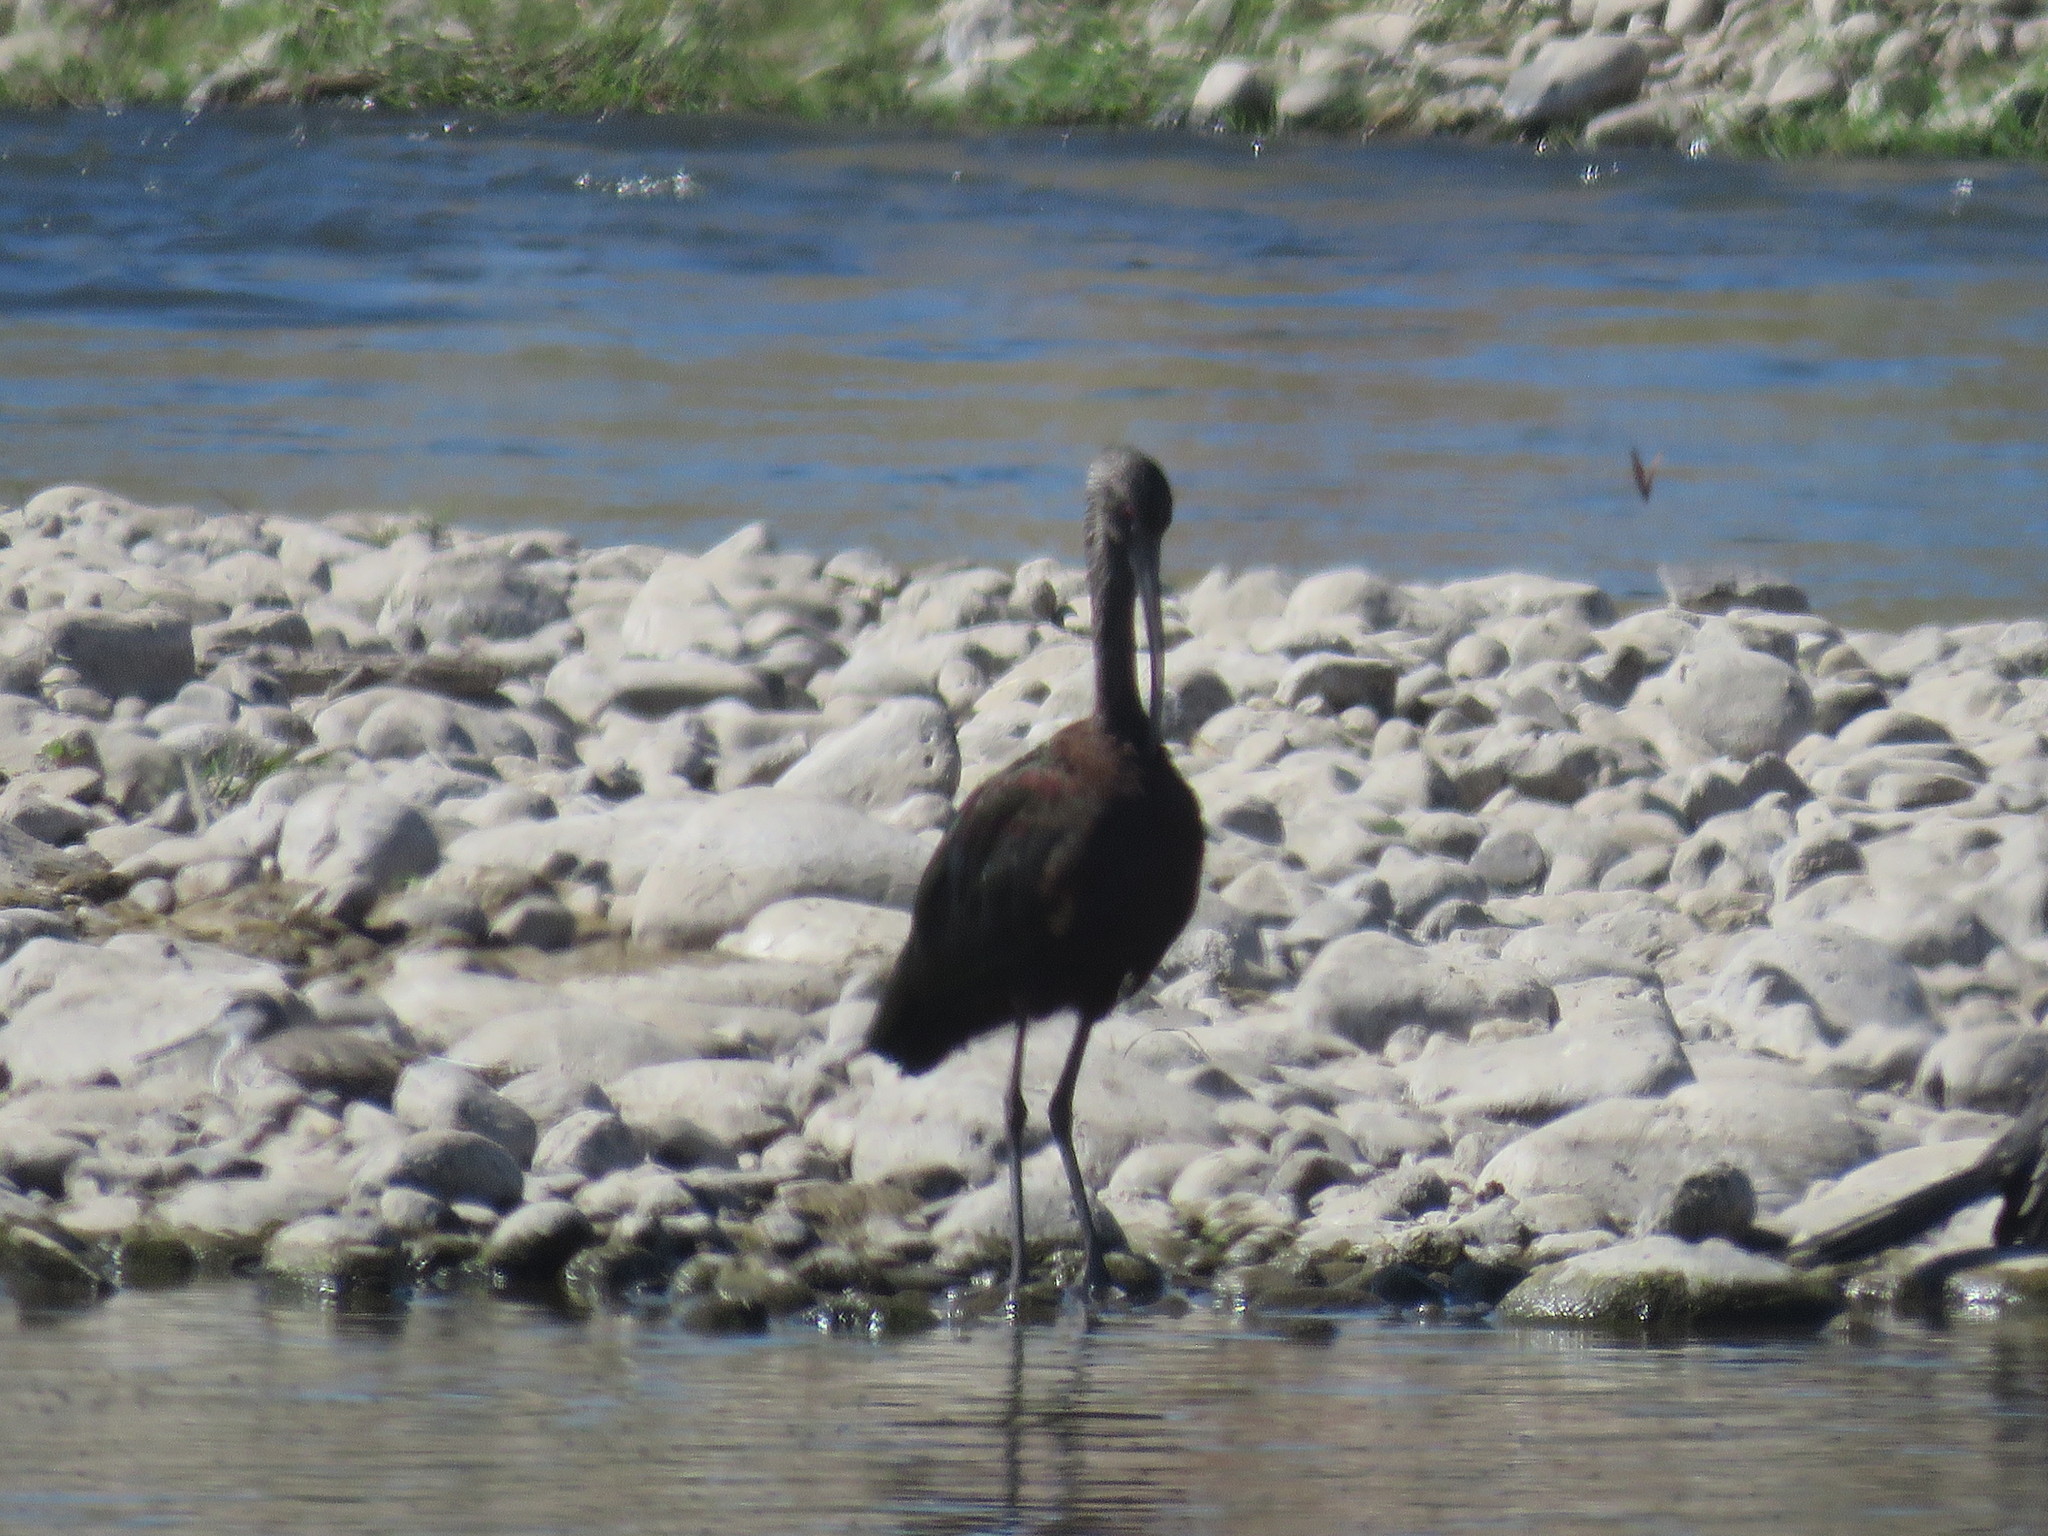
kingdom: Animalia
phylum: Chordata
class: Aves
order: Pelecaniformes
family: Threskiornithidae
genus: Plegadis
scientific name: Plegadis chihi
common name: White-faced ibis
